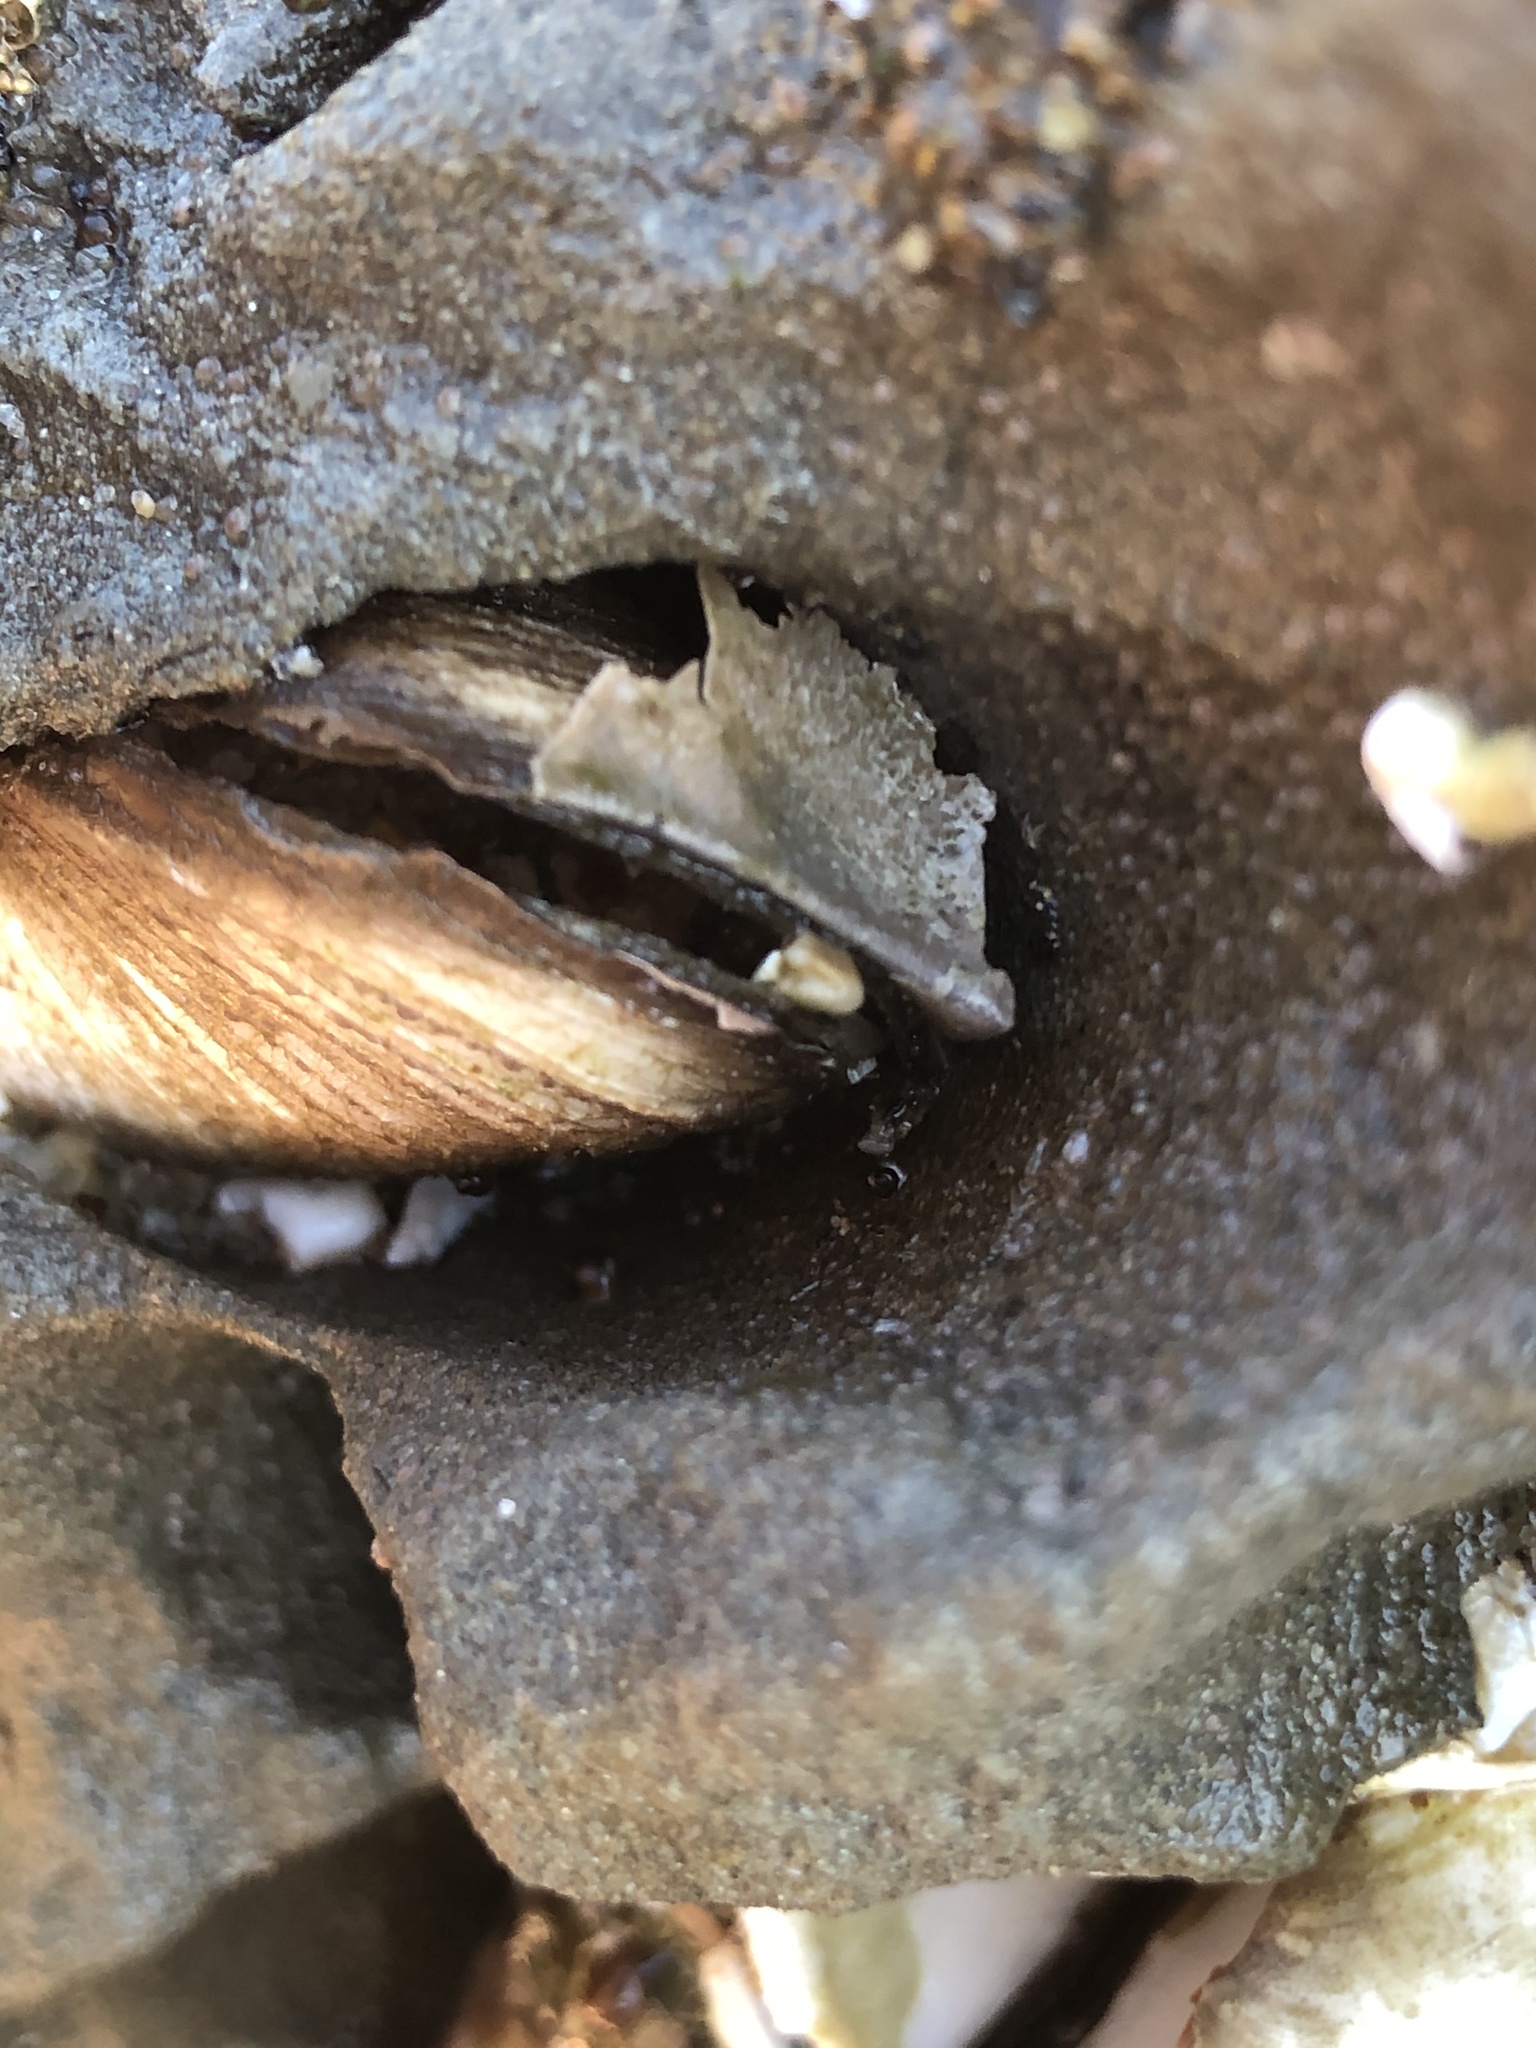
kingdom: Animalia
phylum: Mollusca
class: Bivalvia
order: Myida
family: Pholadidae
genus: Penitella
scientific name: Penitella penita
